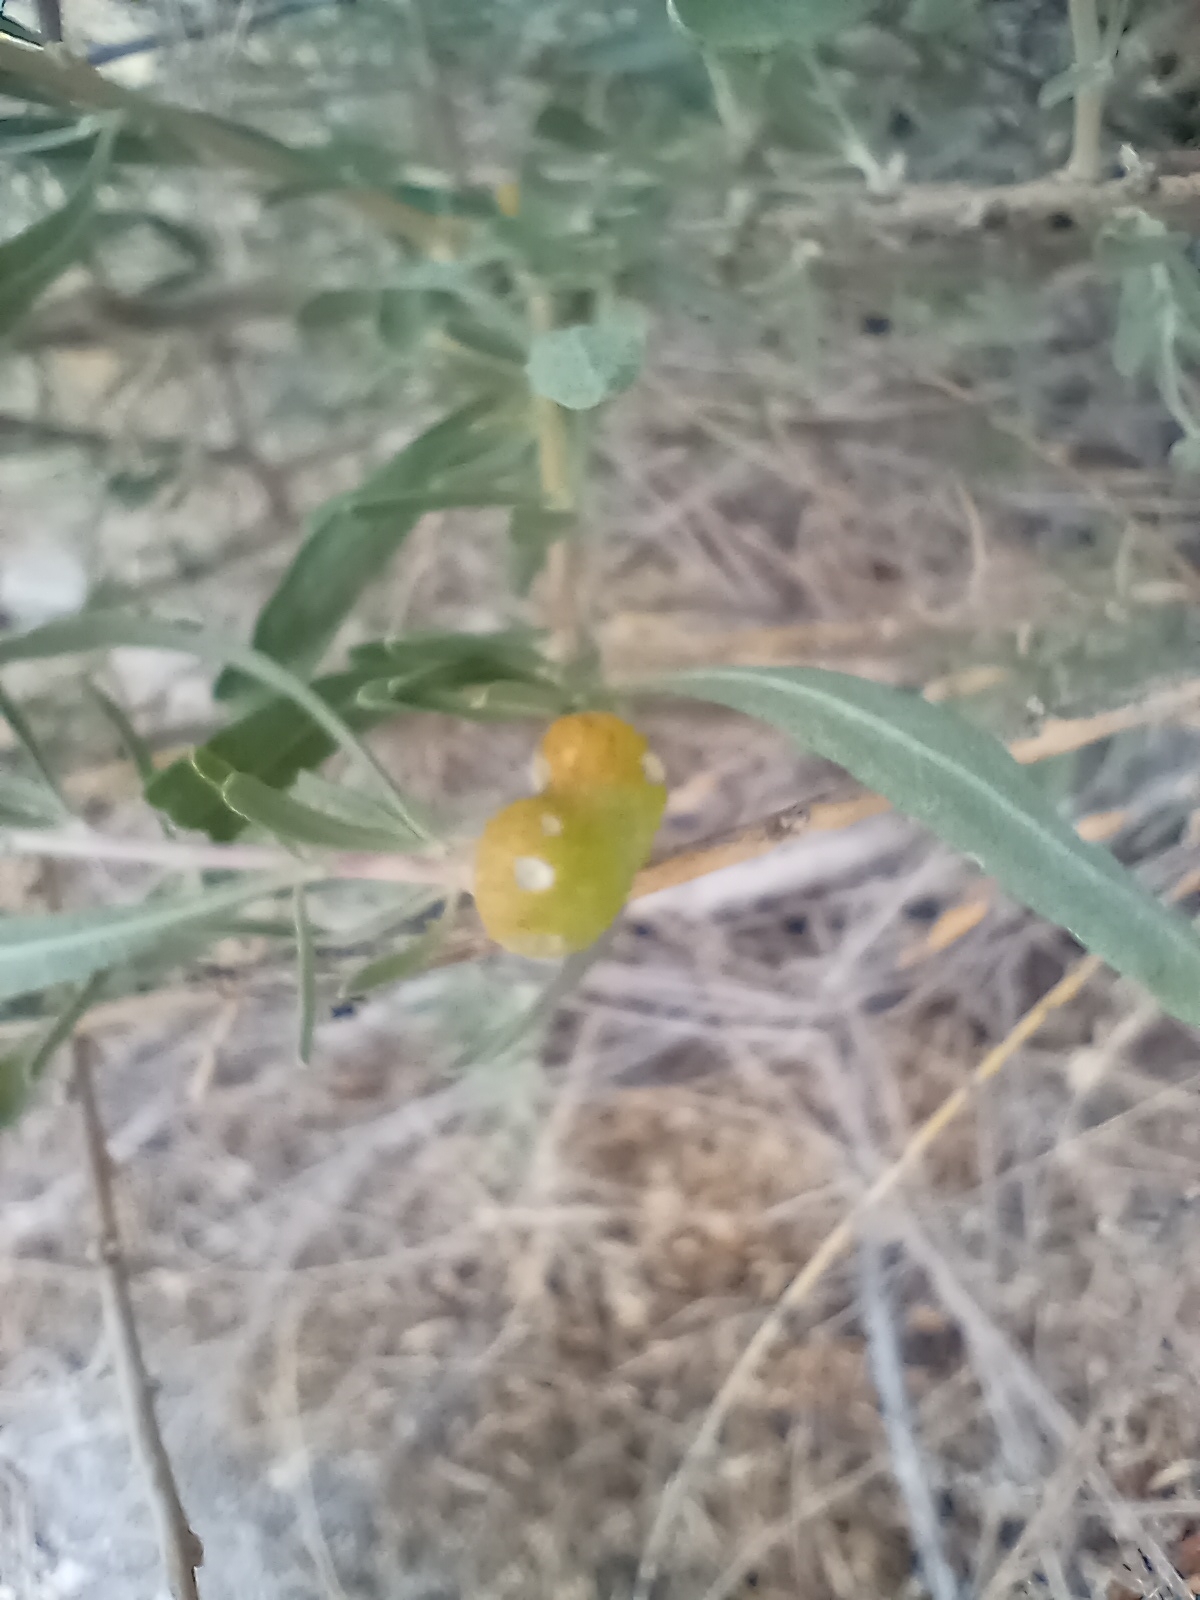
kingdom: Plantae
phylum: Tracheophyta
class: Magnoliopsida
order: Caryophyllales
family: Amaranthaceae
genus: Atriplex
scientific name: Atriplex canescens
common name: Four-wing saltbush
